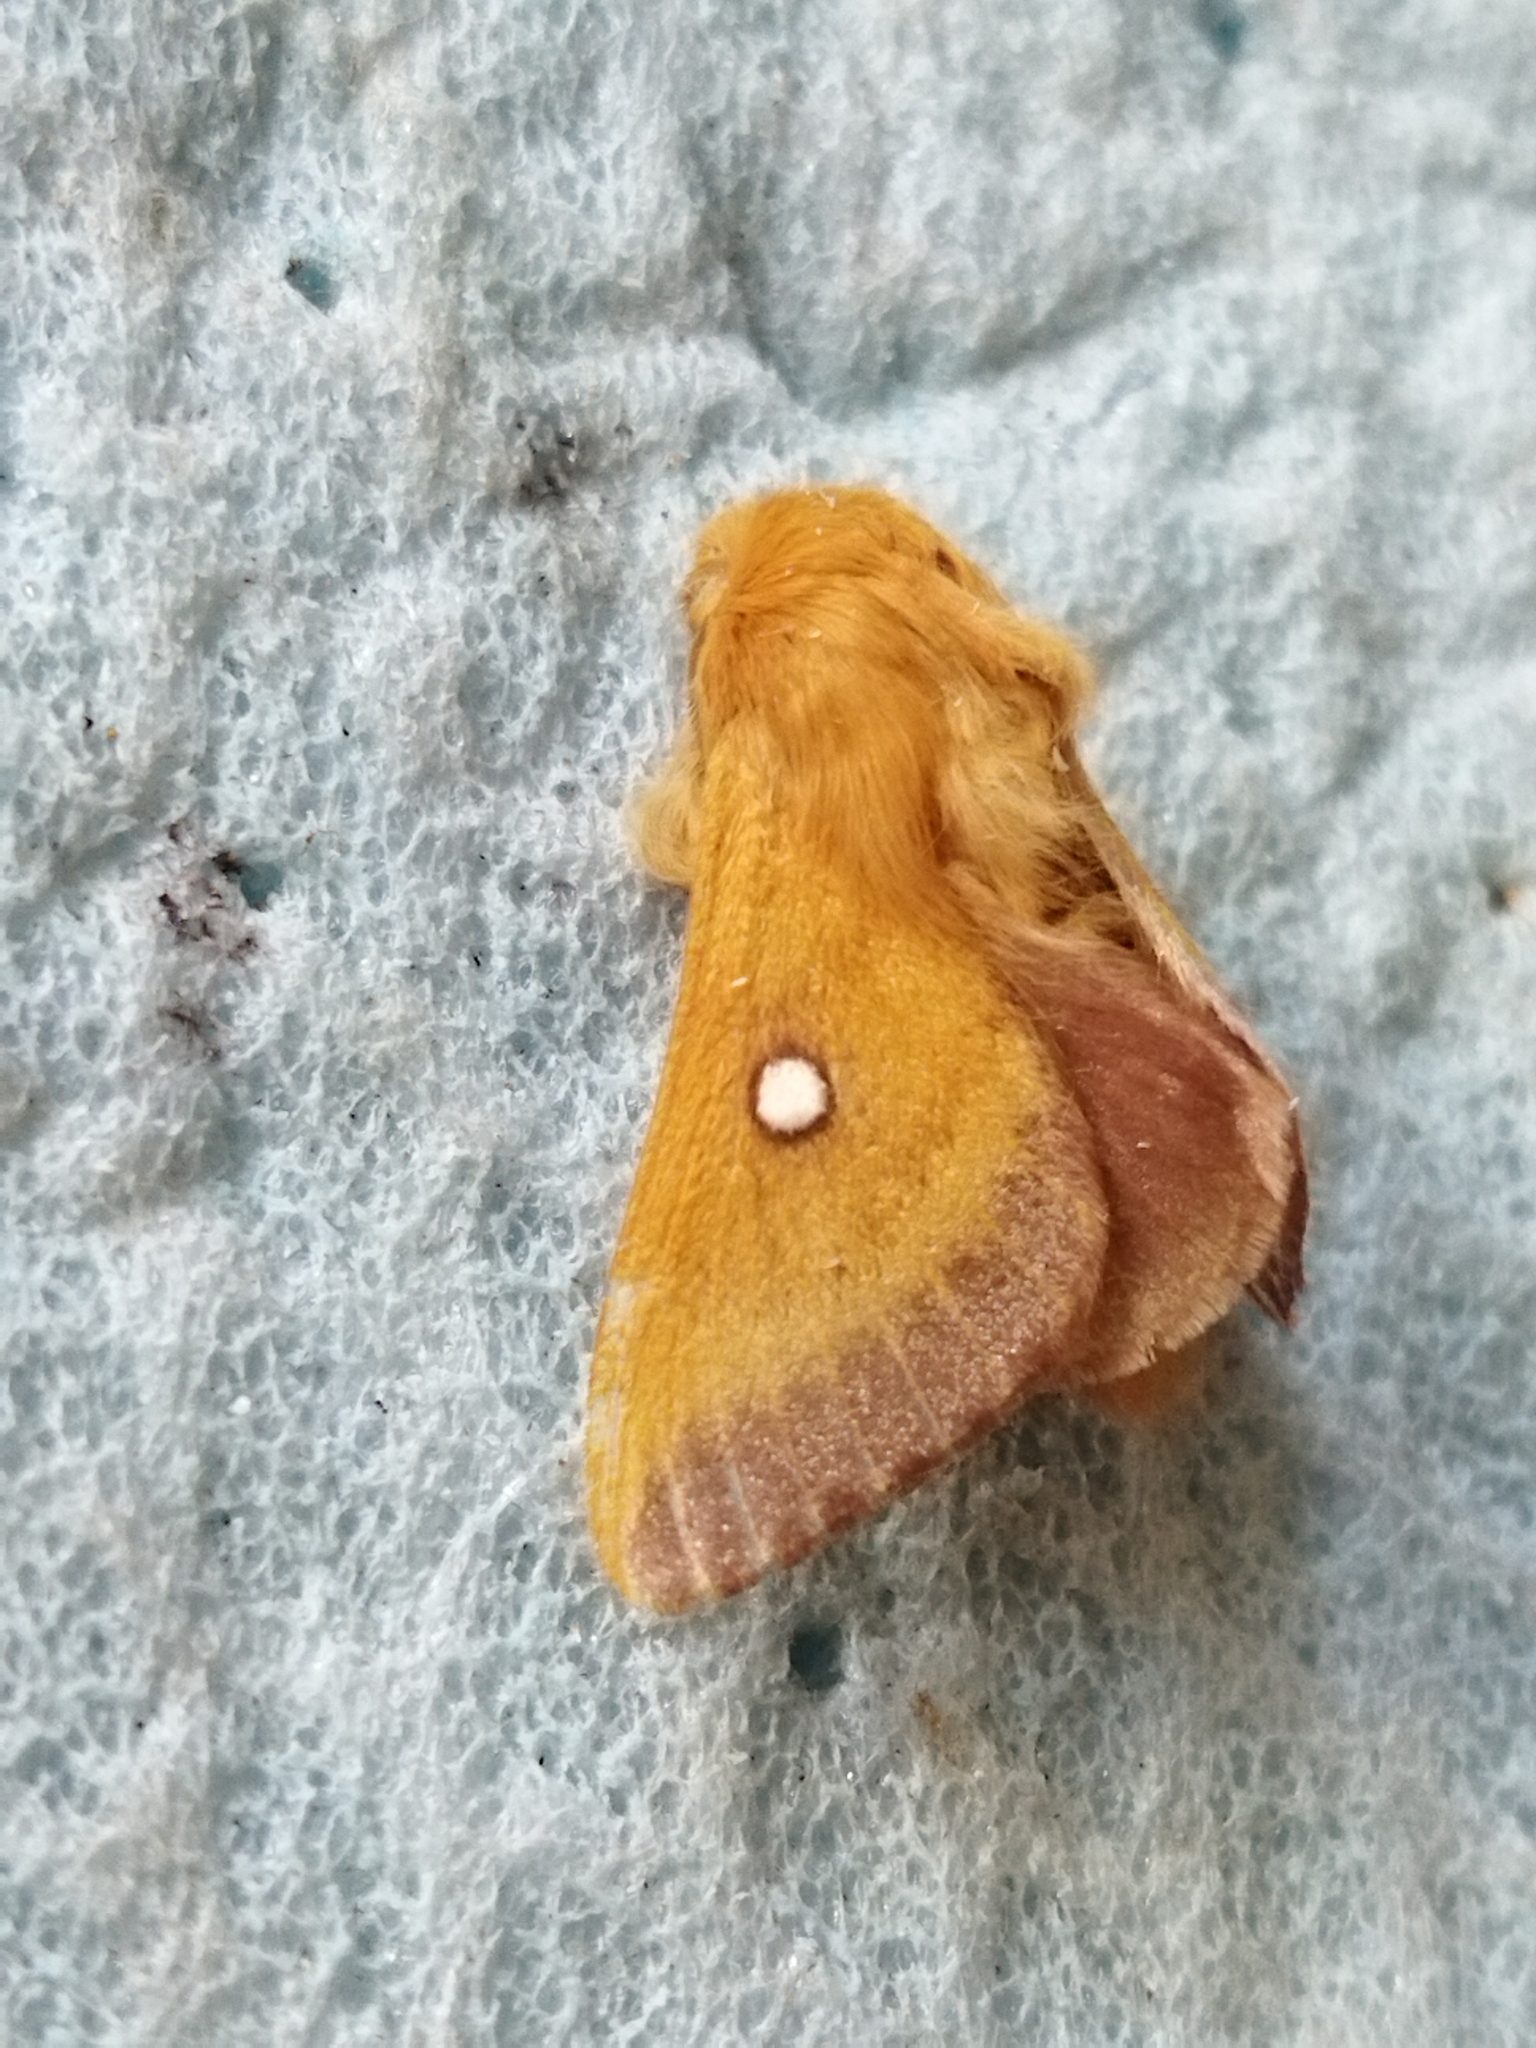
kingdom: Animalia
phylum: Arthropoda
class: Insecta
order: Lepidoptera
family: Lasiocampidae
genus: Eriogaster
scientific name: Eriogaster catax
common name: Eastern eggar
